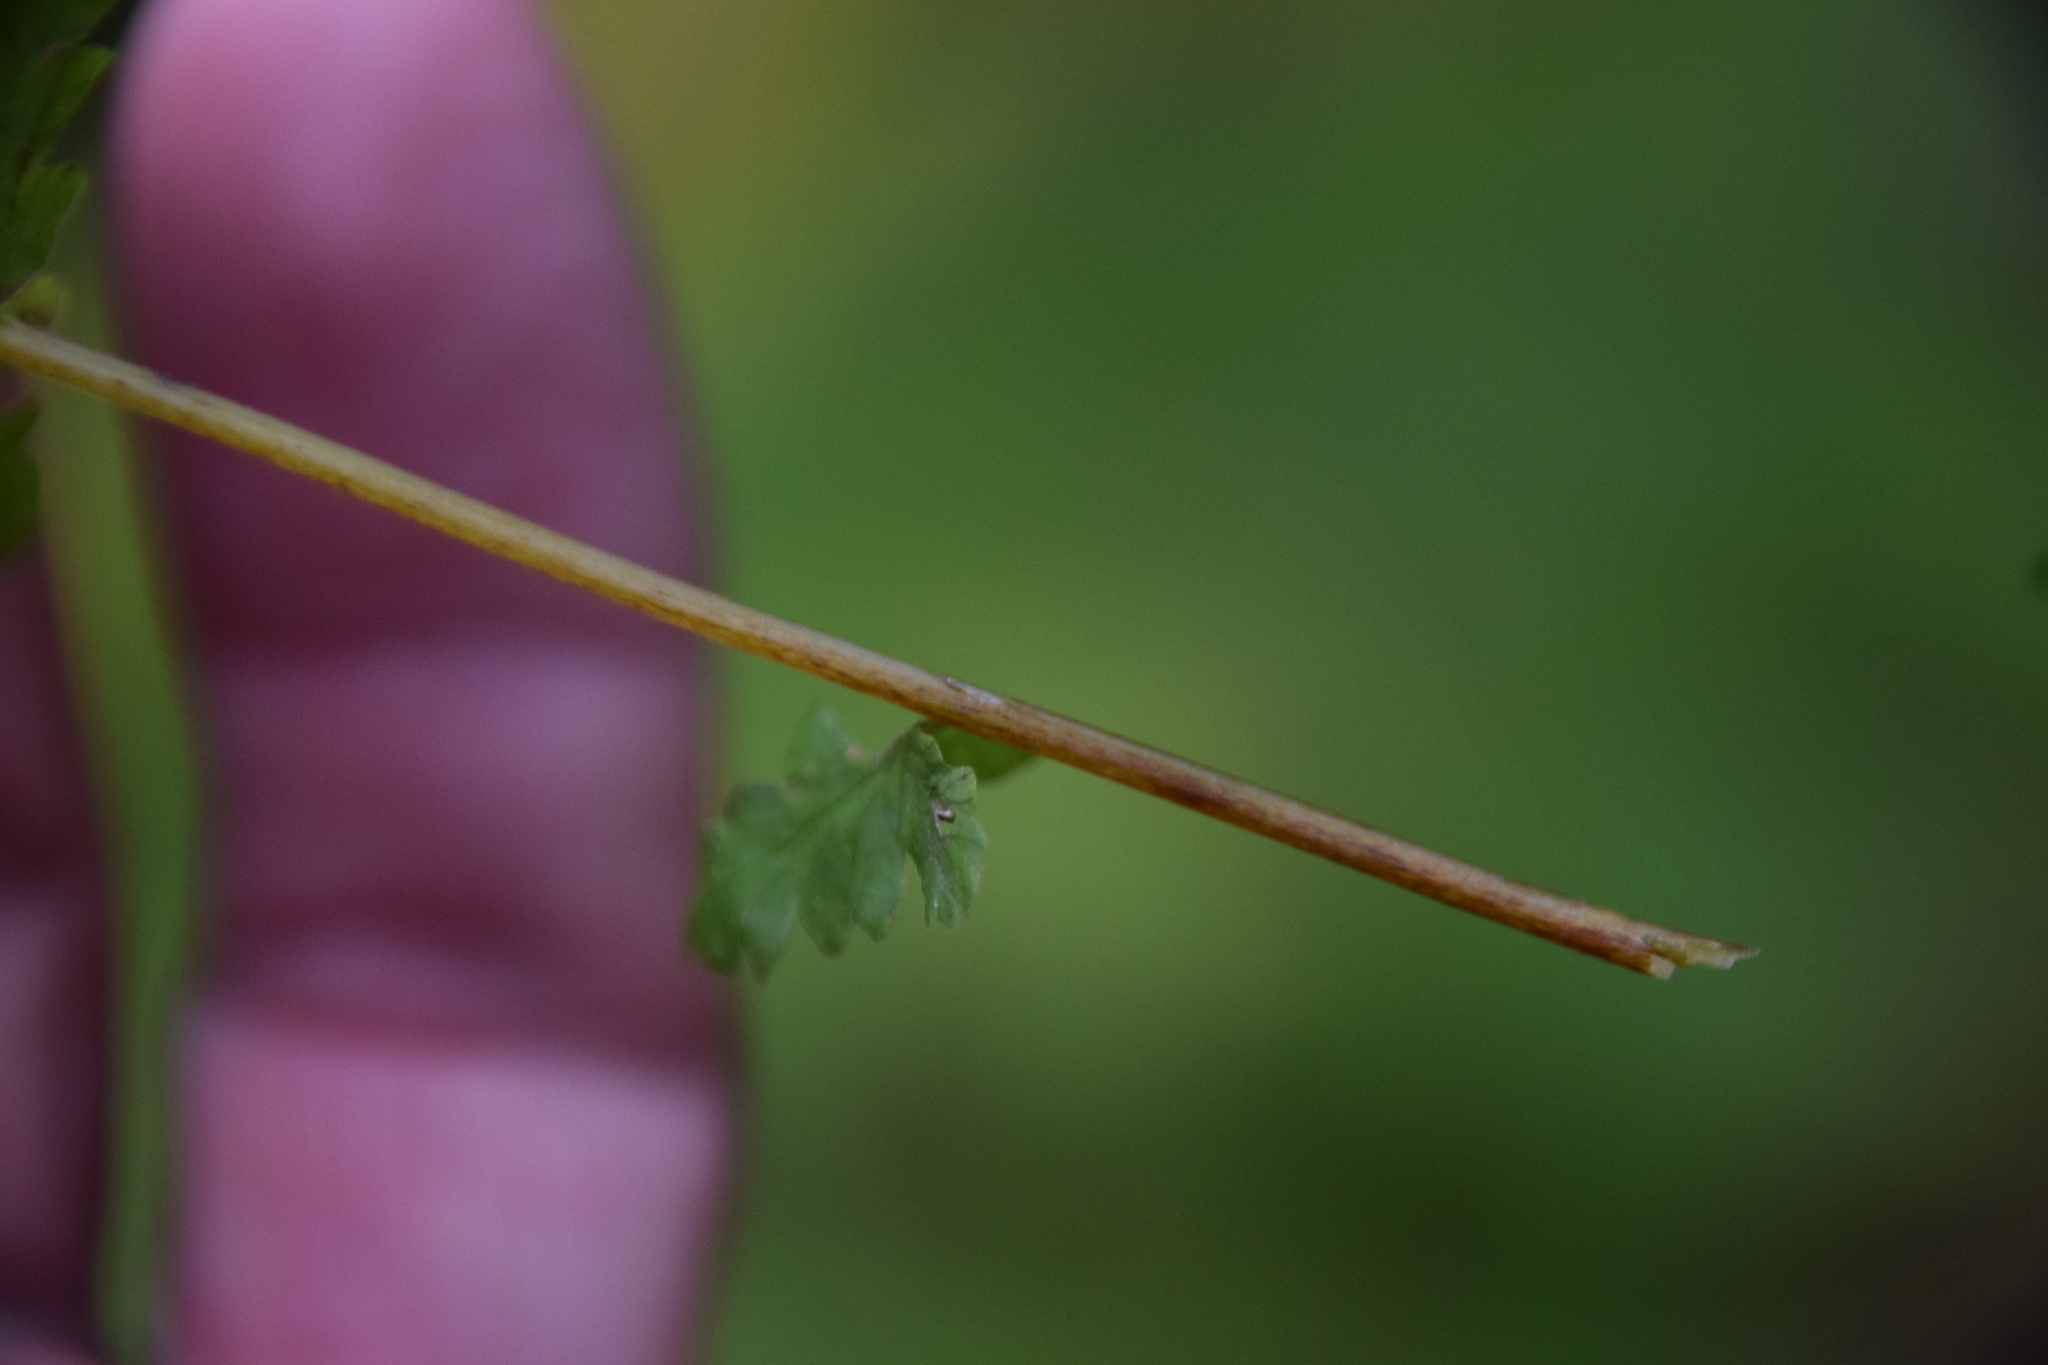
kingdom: Plantae
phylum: Tracheophyta
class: Polypodiopsida
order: Polypodiales
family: Thelypteridaceae
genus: Amauropelta
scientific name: Amauropelta noveboracensis
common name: New york fern
